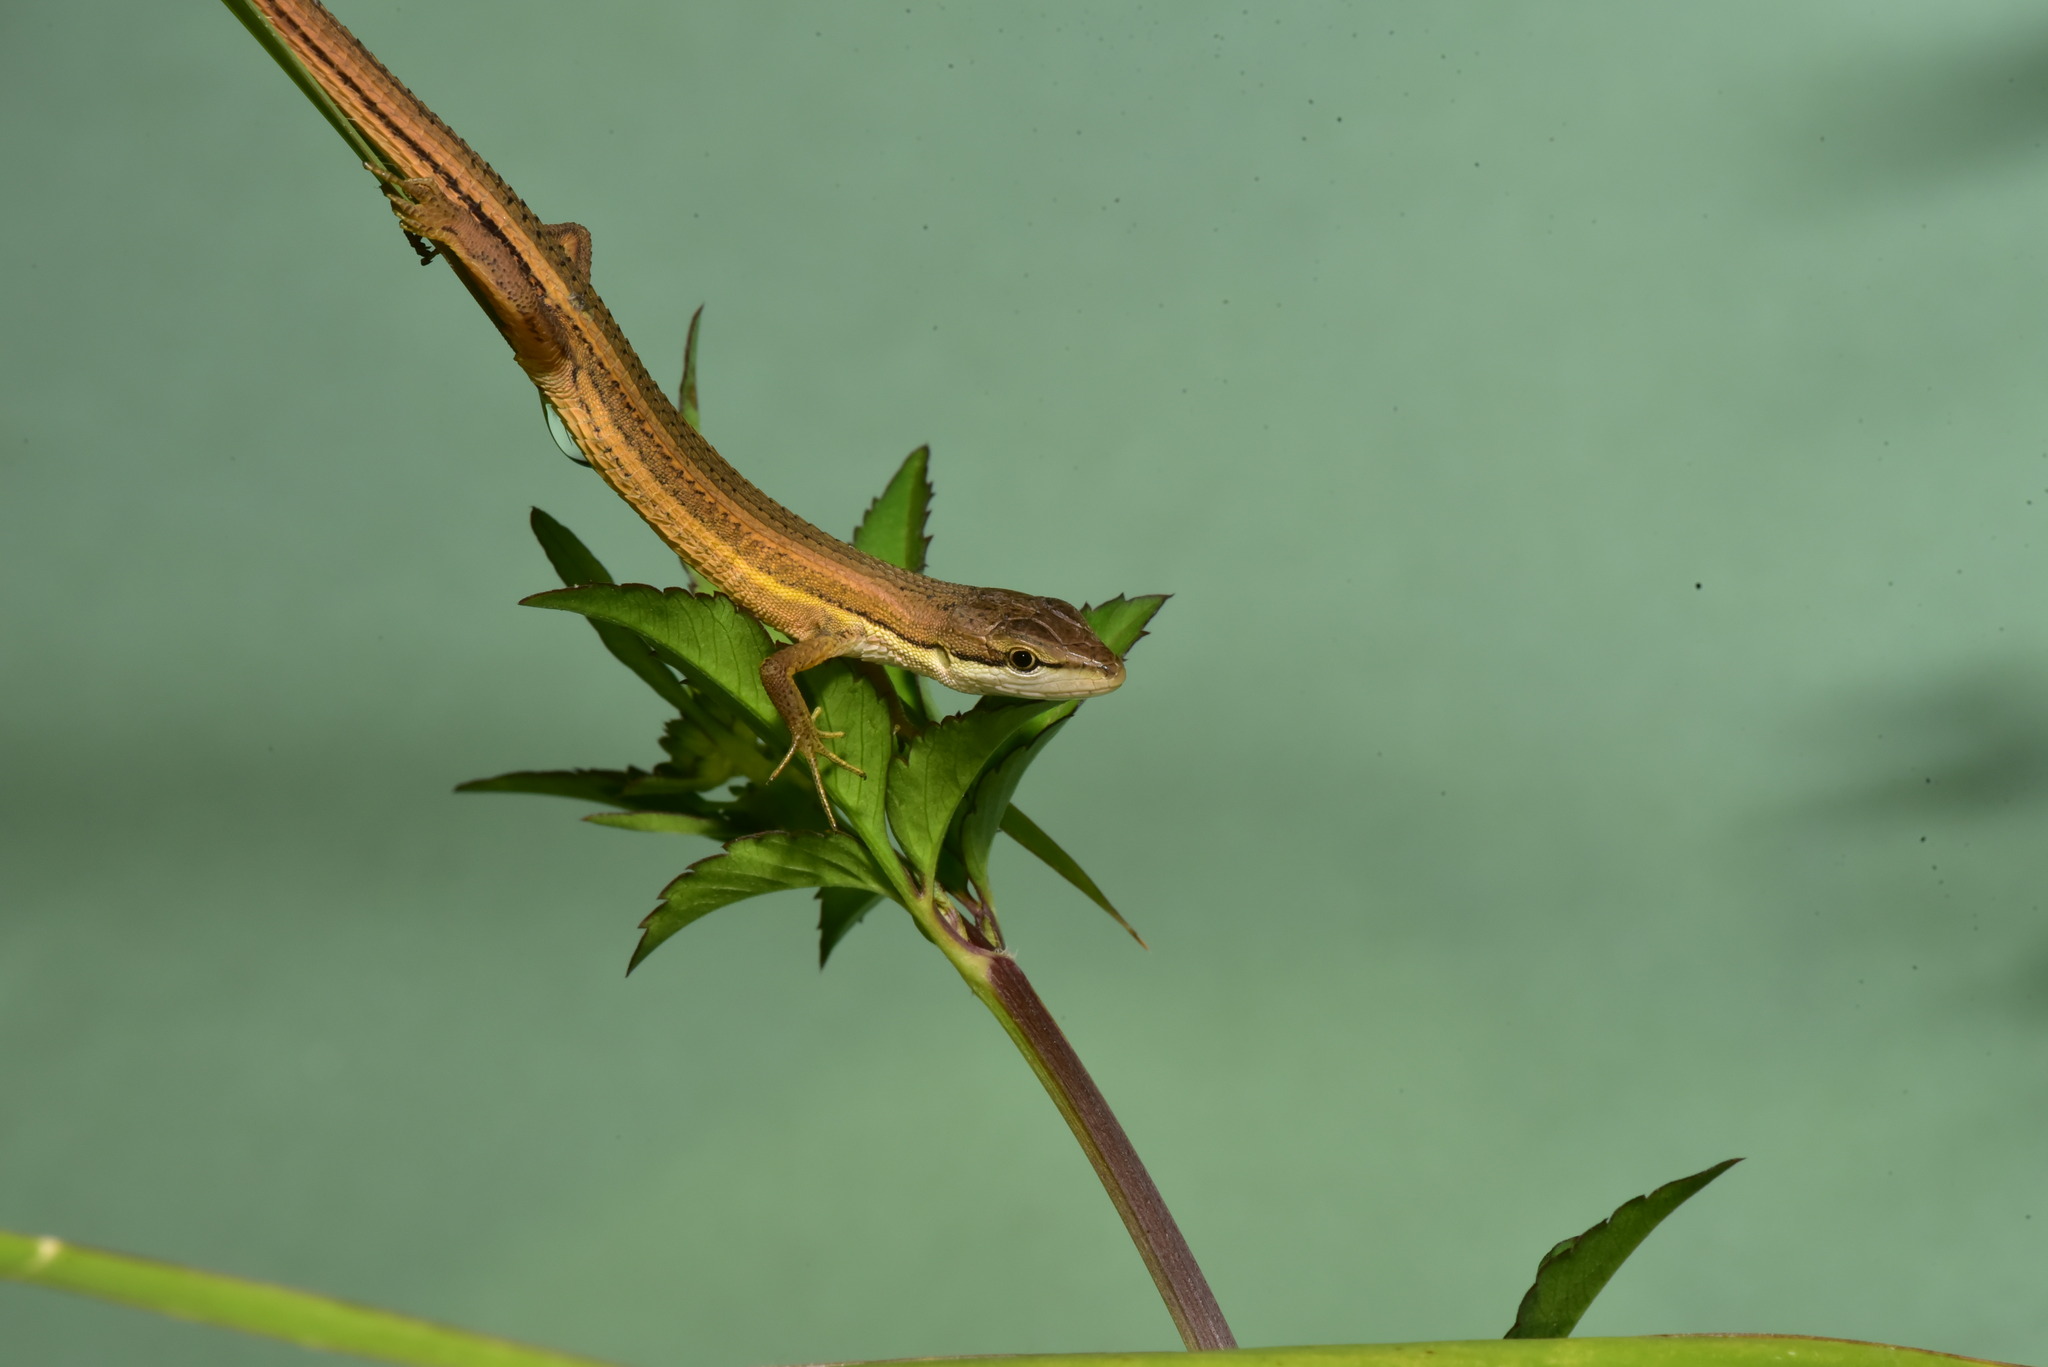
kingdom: Animalia
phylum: Chordata
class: Squamata
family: Lacertidae
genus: Takydromus
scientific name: Takydromus luyeanus
